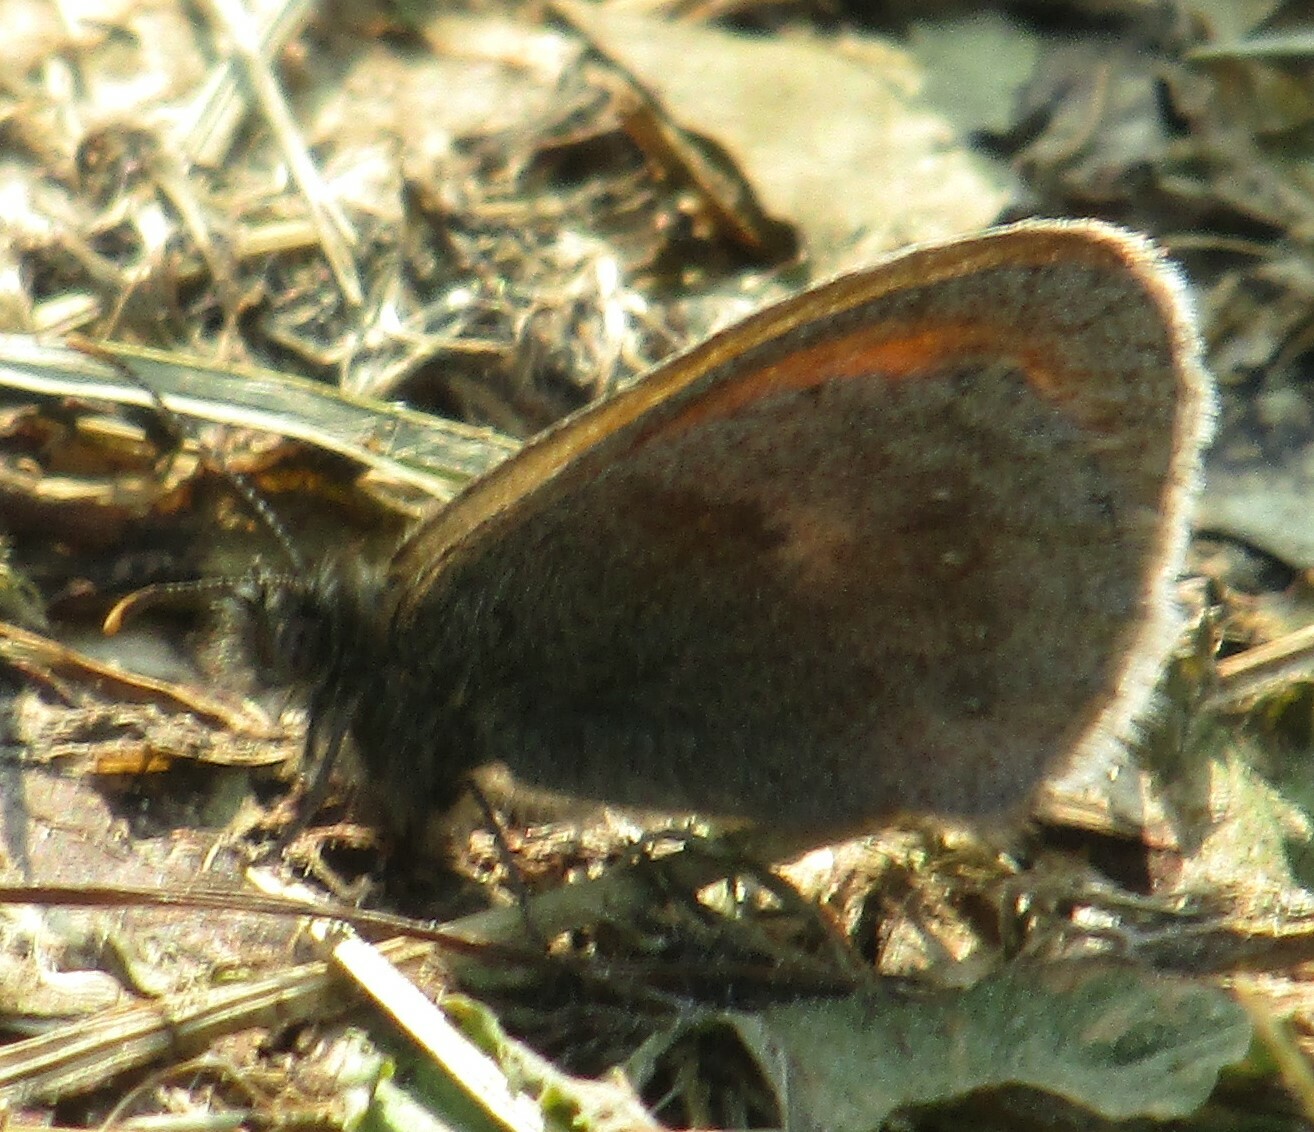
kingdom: Animalia
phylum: Arthropoda
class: Insecta
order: Lepidoptera
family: Nymphalidae
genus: Coenonympha
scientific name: Coenonympha pamphilus
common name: Small heath
